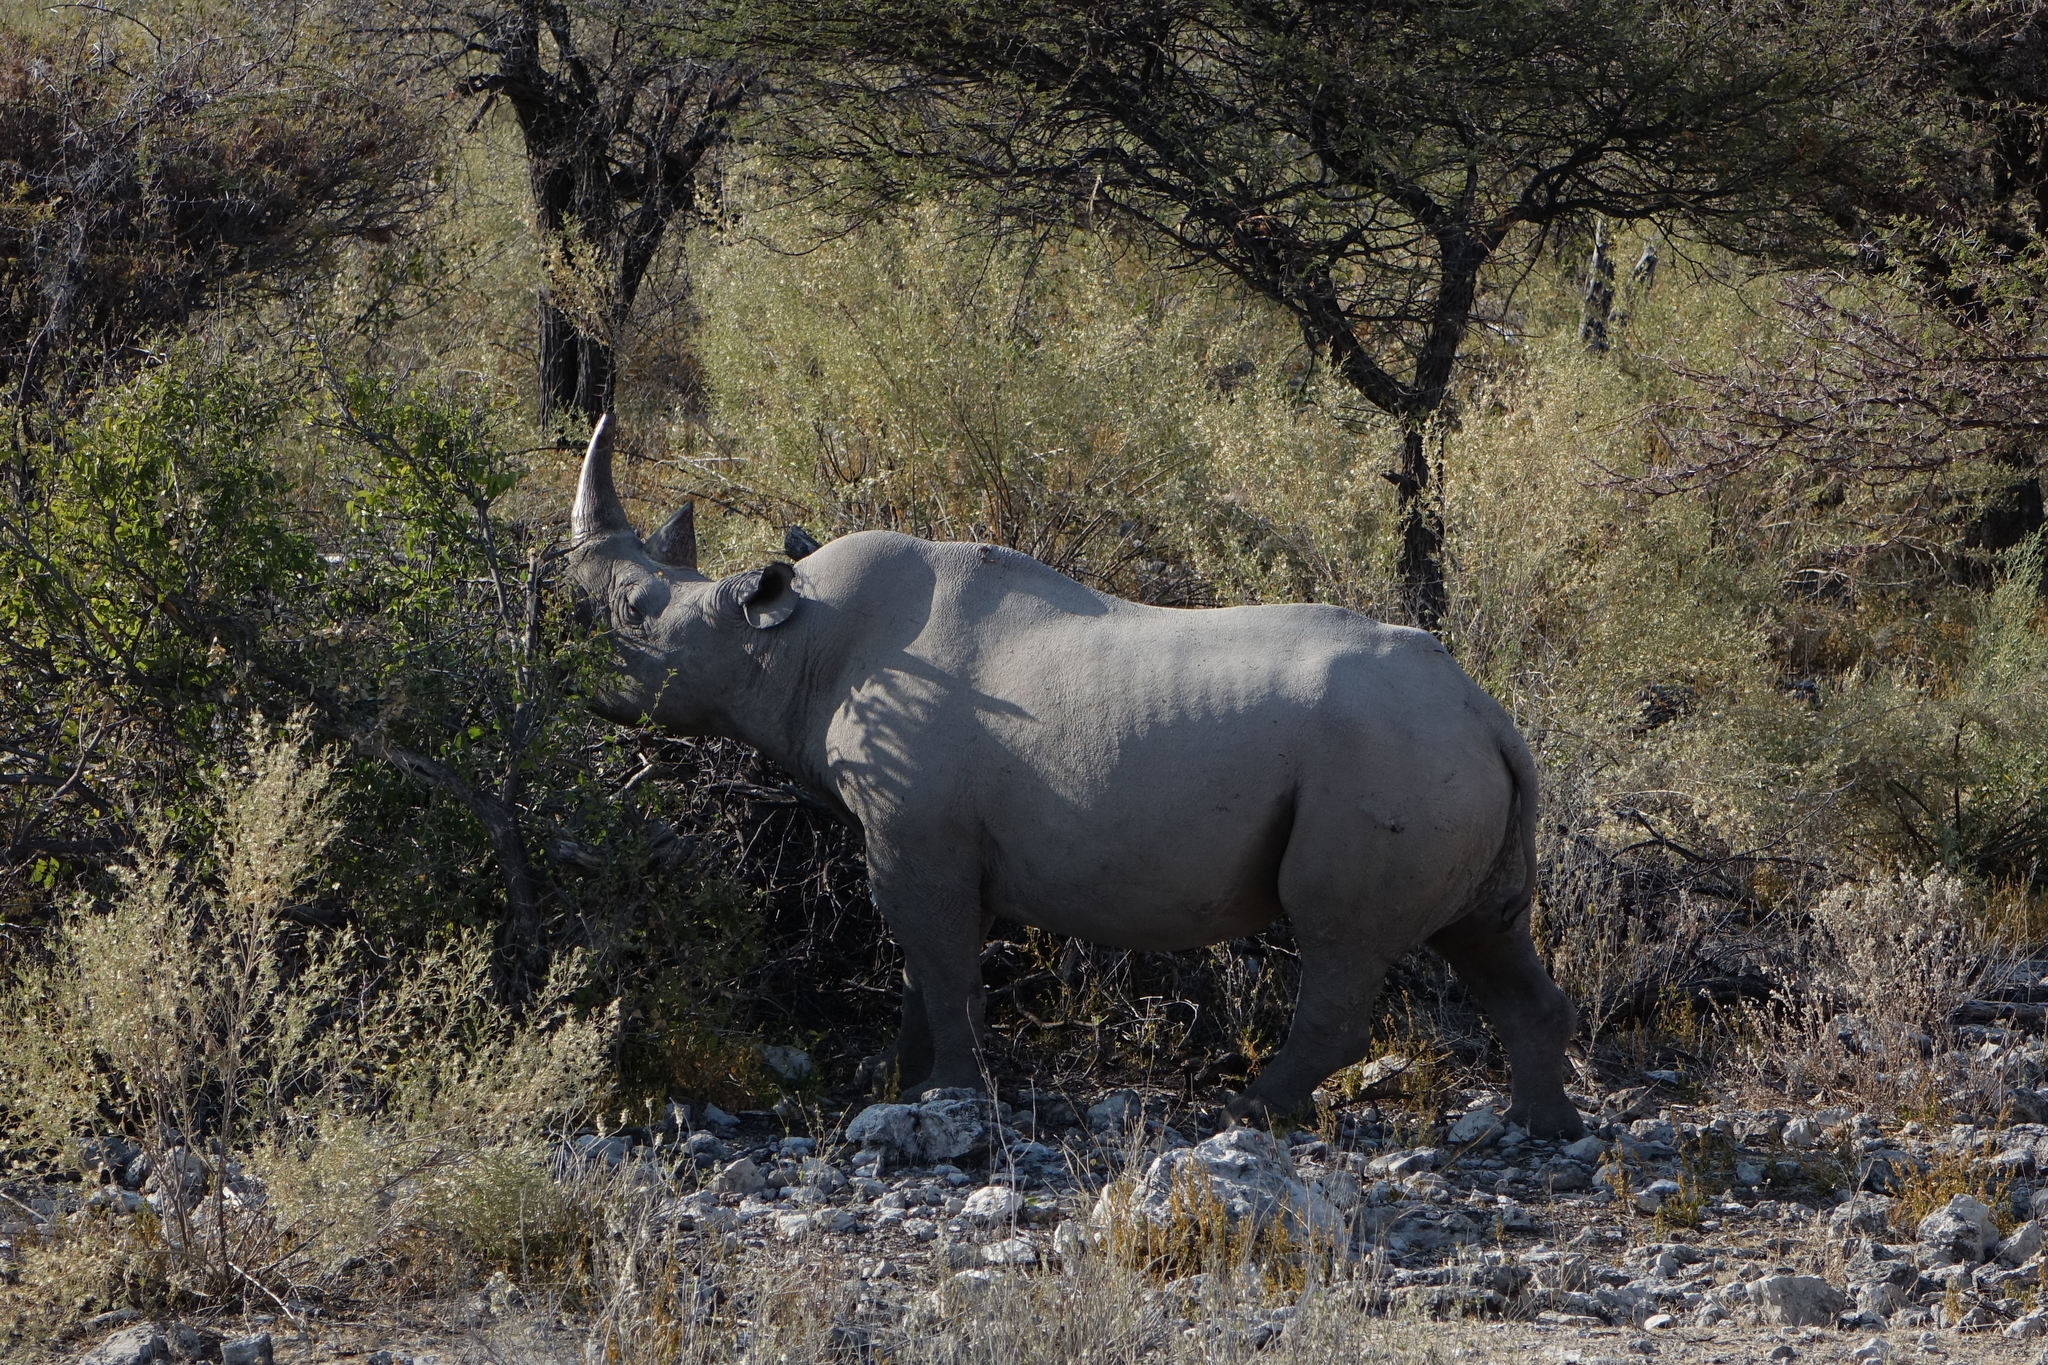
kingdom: Animalia
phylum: Chordata
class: Mammalia
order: Perissodactyla
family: Rhinocerotidae
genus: Diceros
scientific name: Diceros bicornis
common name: Black rhinoceros
